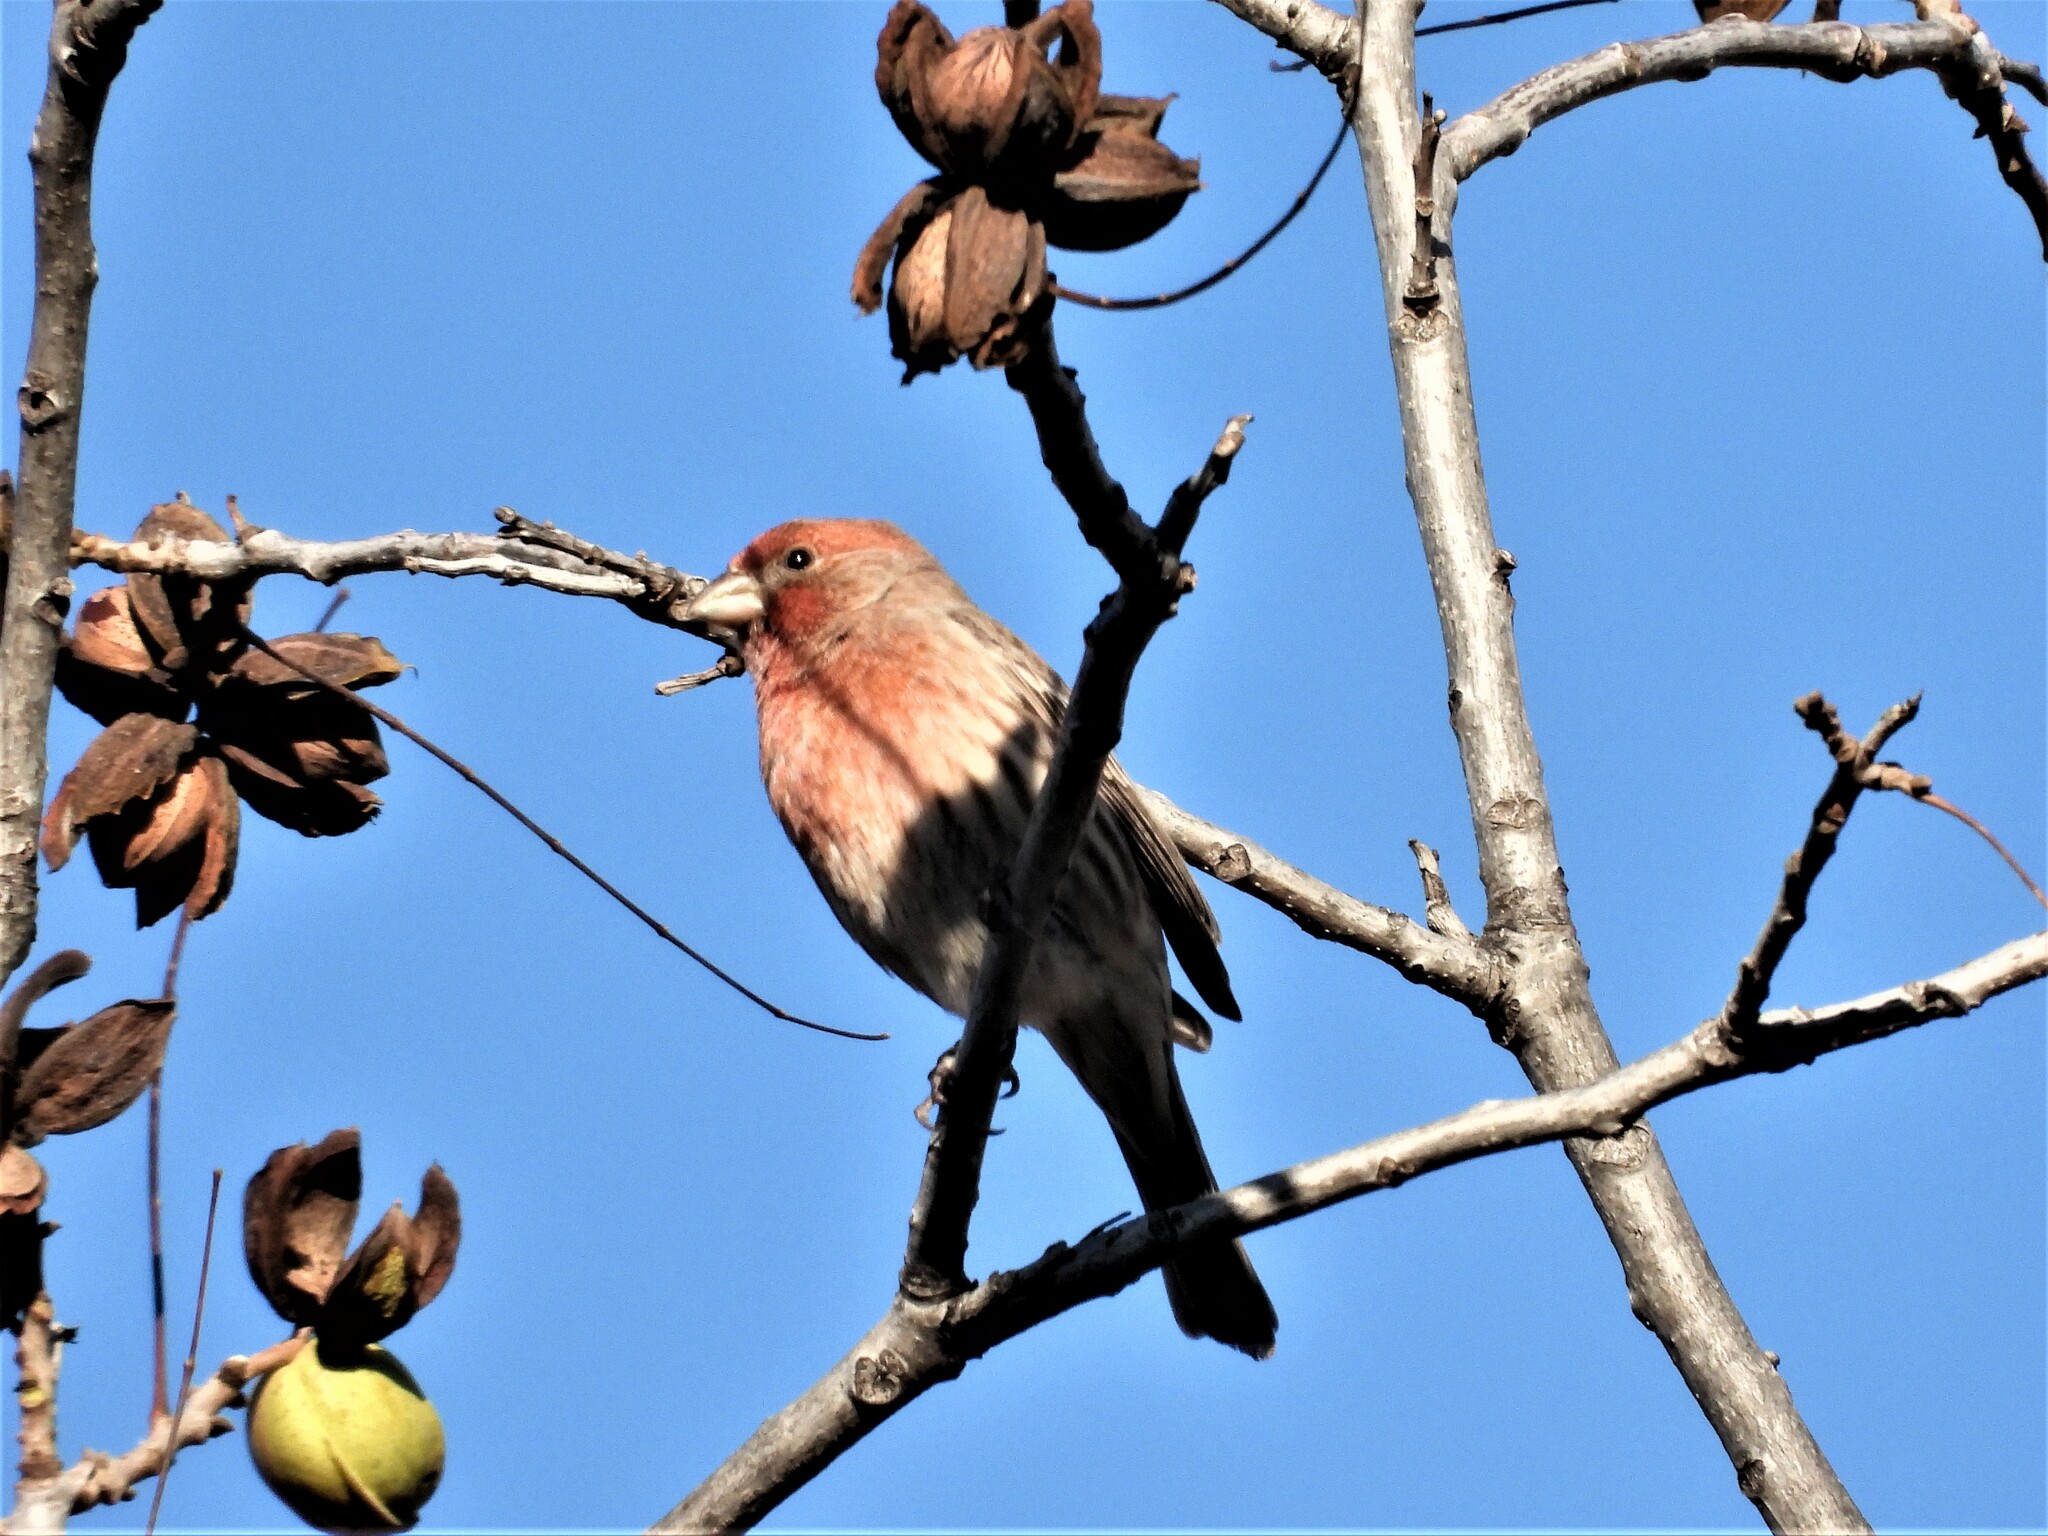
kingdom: Animalia
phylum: Chordata
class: Aves
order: Passeriformes
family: Fringillidae
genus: Haemorhous
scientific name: Haemorhous mexicanus
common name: House finch
